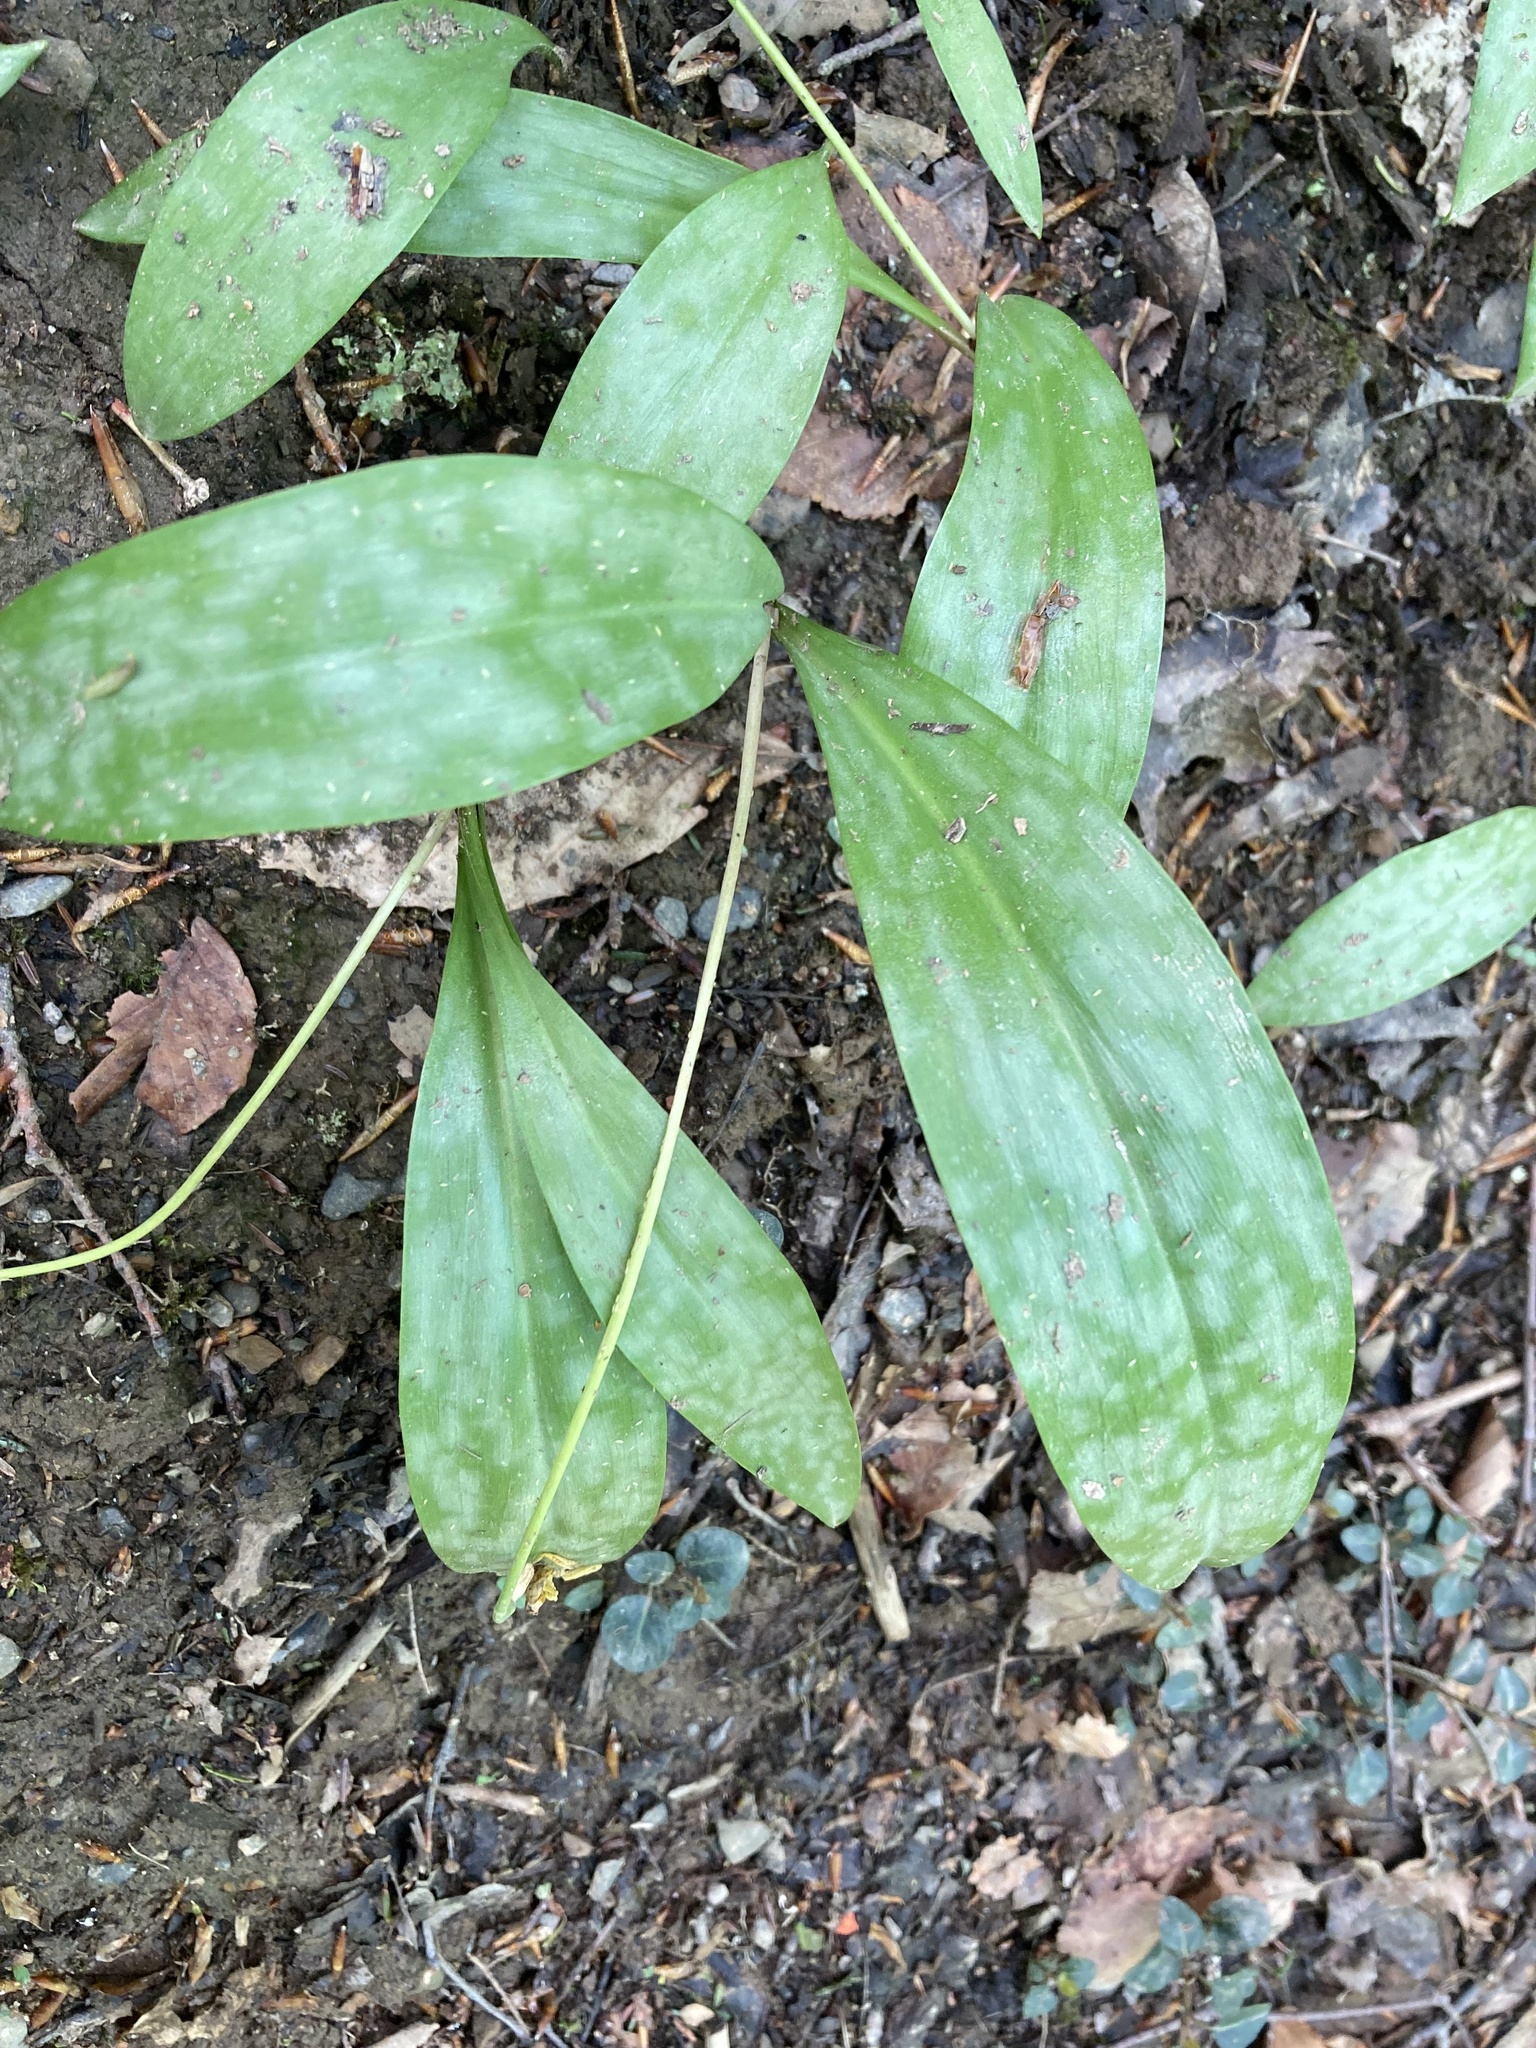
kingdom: Plantae
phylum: Tracheophyta
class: Liliopsida
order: Liliales
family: Liliaceae
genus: Erythronium
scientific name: Erythronium americanum
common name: Yellow adder's-tongue
